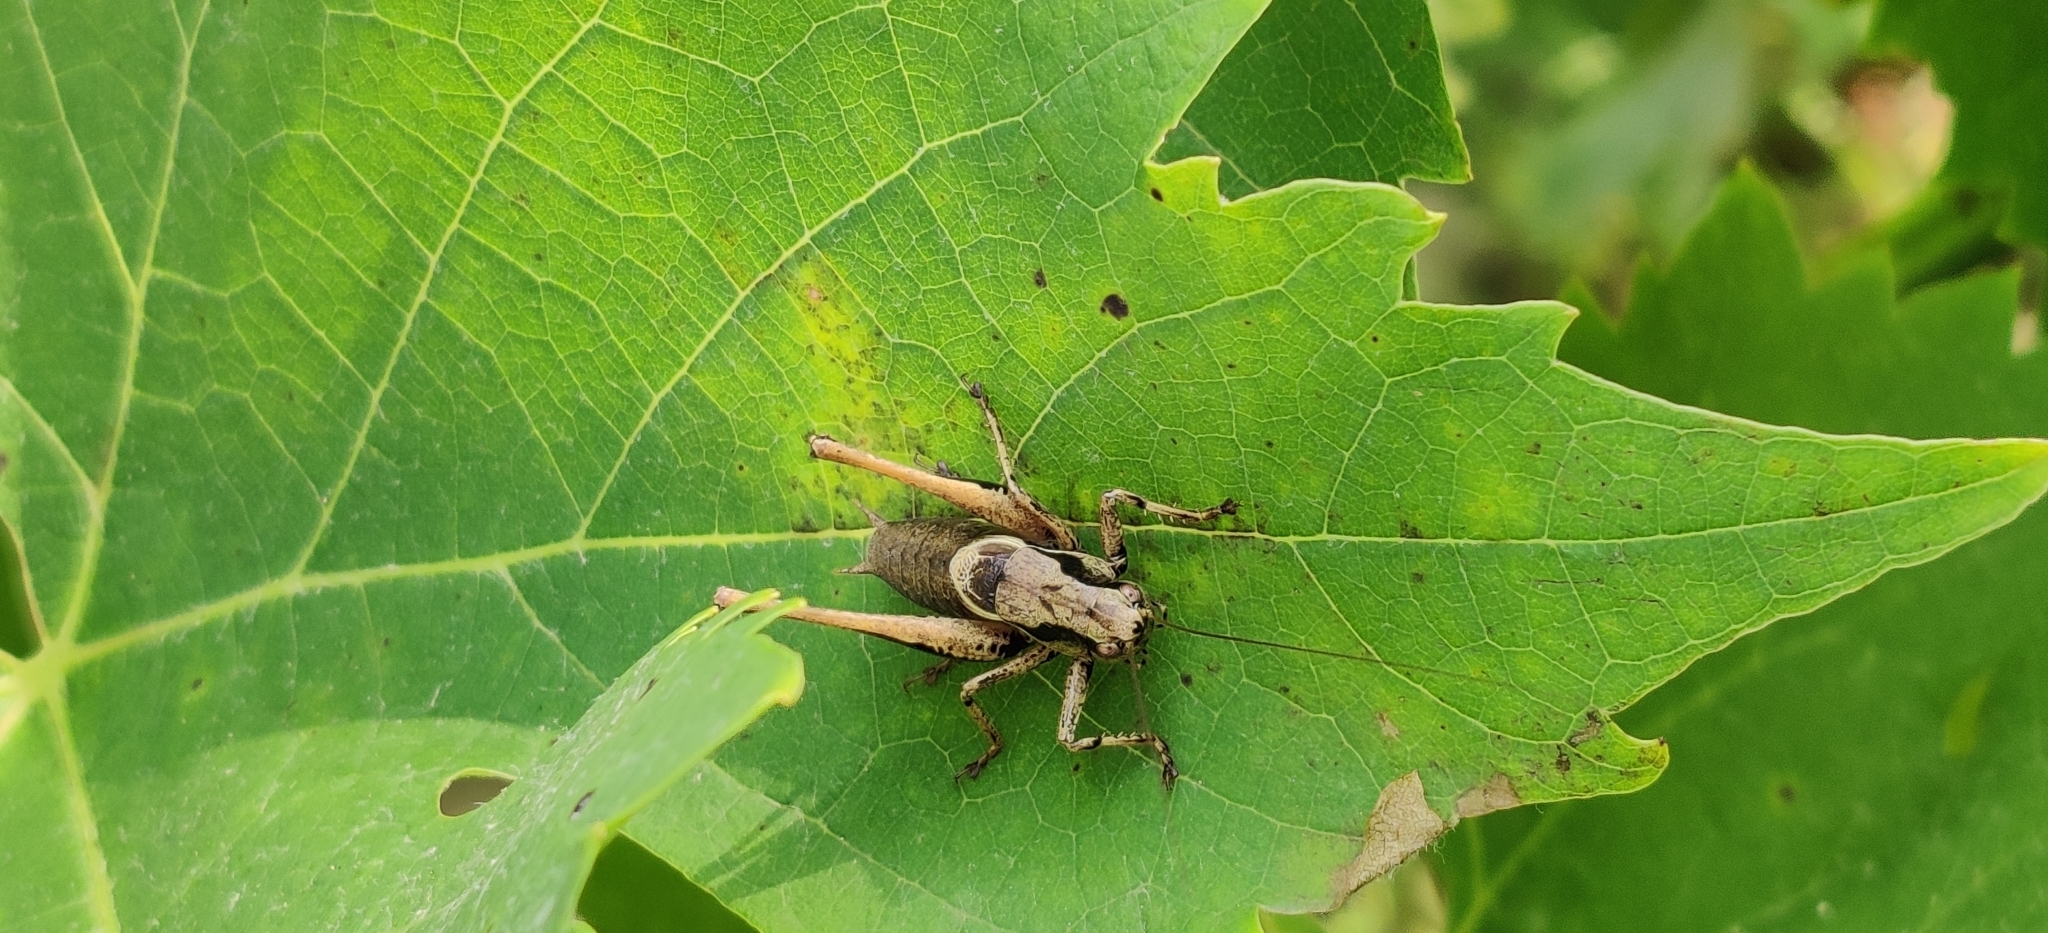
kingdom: Animalia
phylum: Arthropoda
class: Insecta
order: Orthoptera
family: Tettigoniidae
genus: Pholidoptera
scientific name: Pholidoptera griseoaptera
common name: Dark bush-cricket
